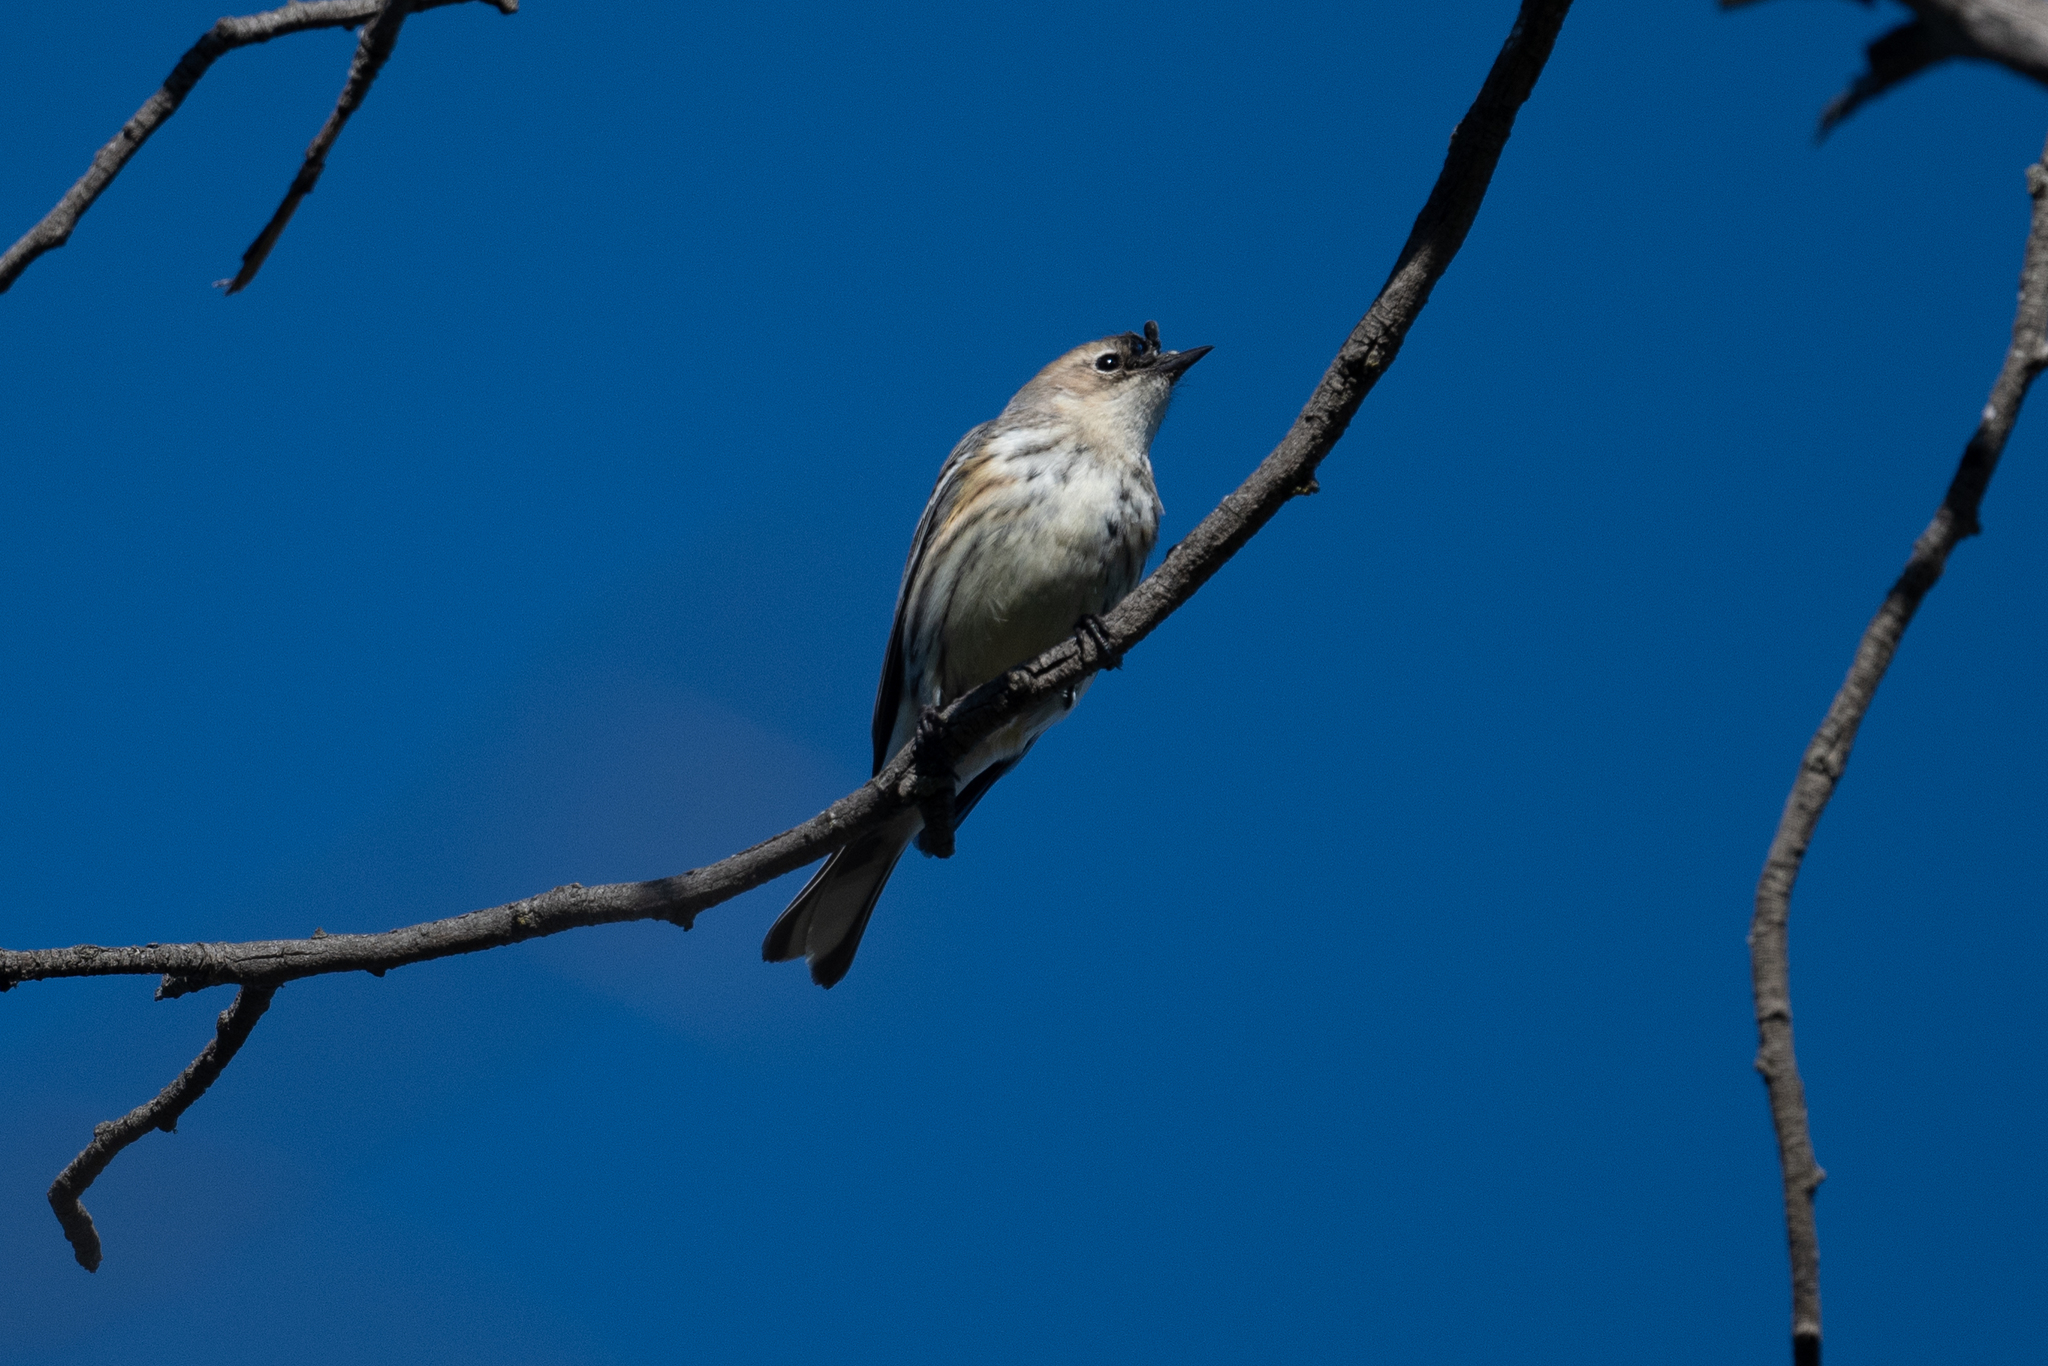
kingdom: Animalia
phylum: Chordata
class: Aves
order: Passeriformes
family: Parulidae
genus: Setophaga
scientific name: Setophaga coronata
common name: Myrtle warbler
